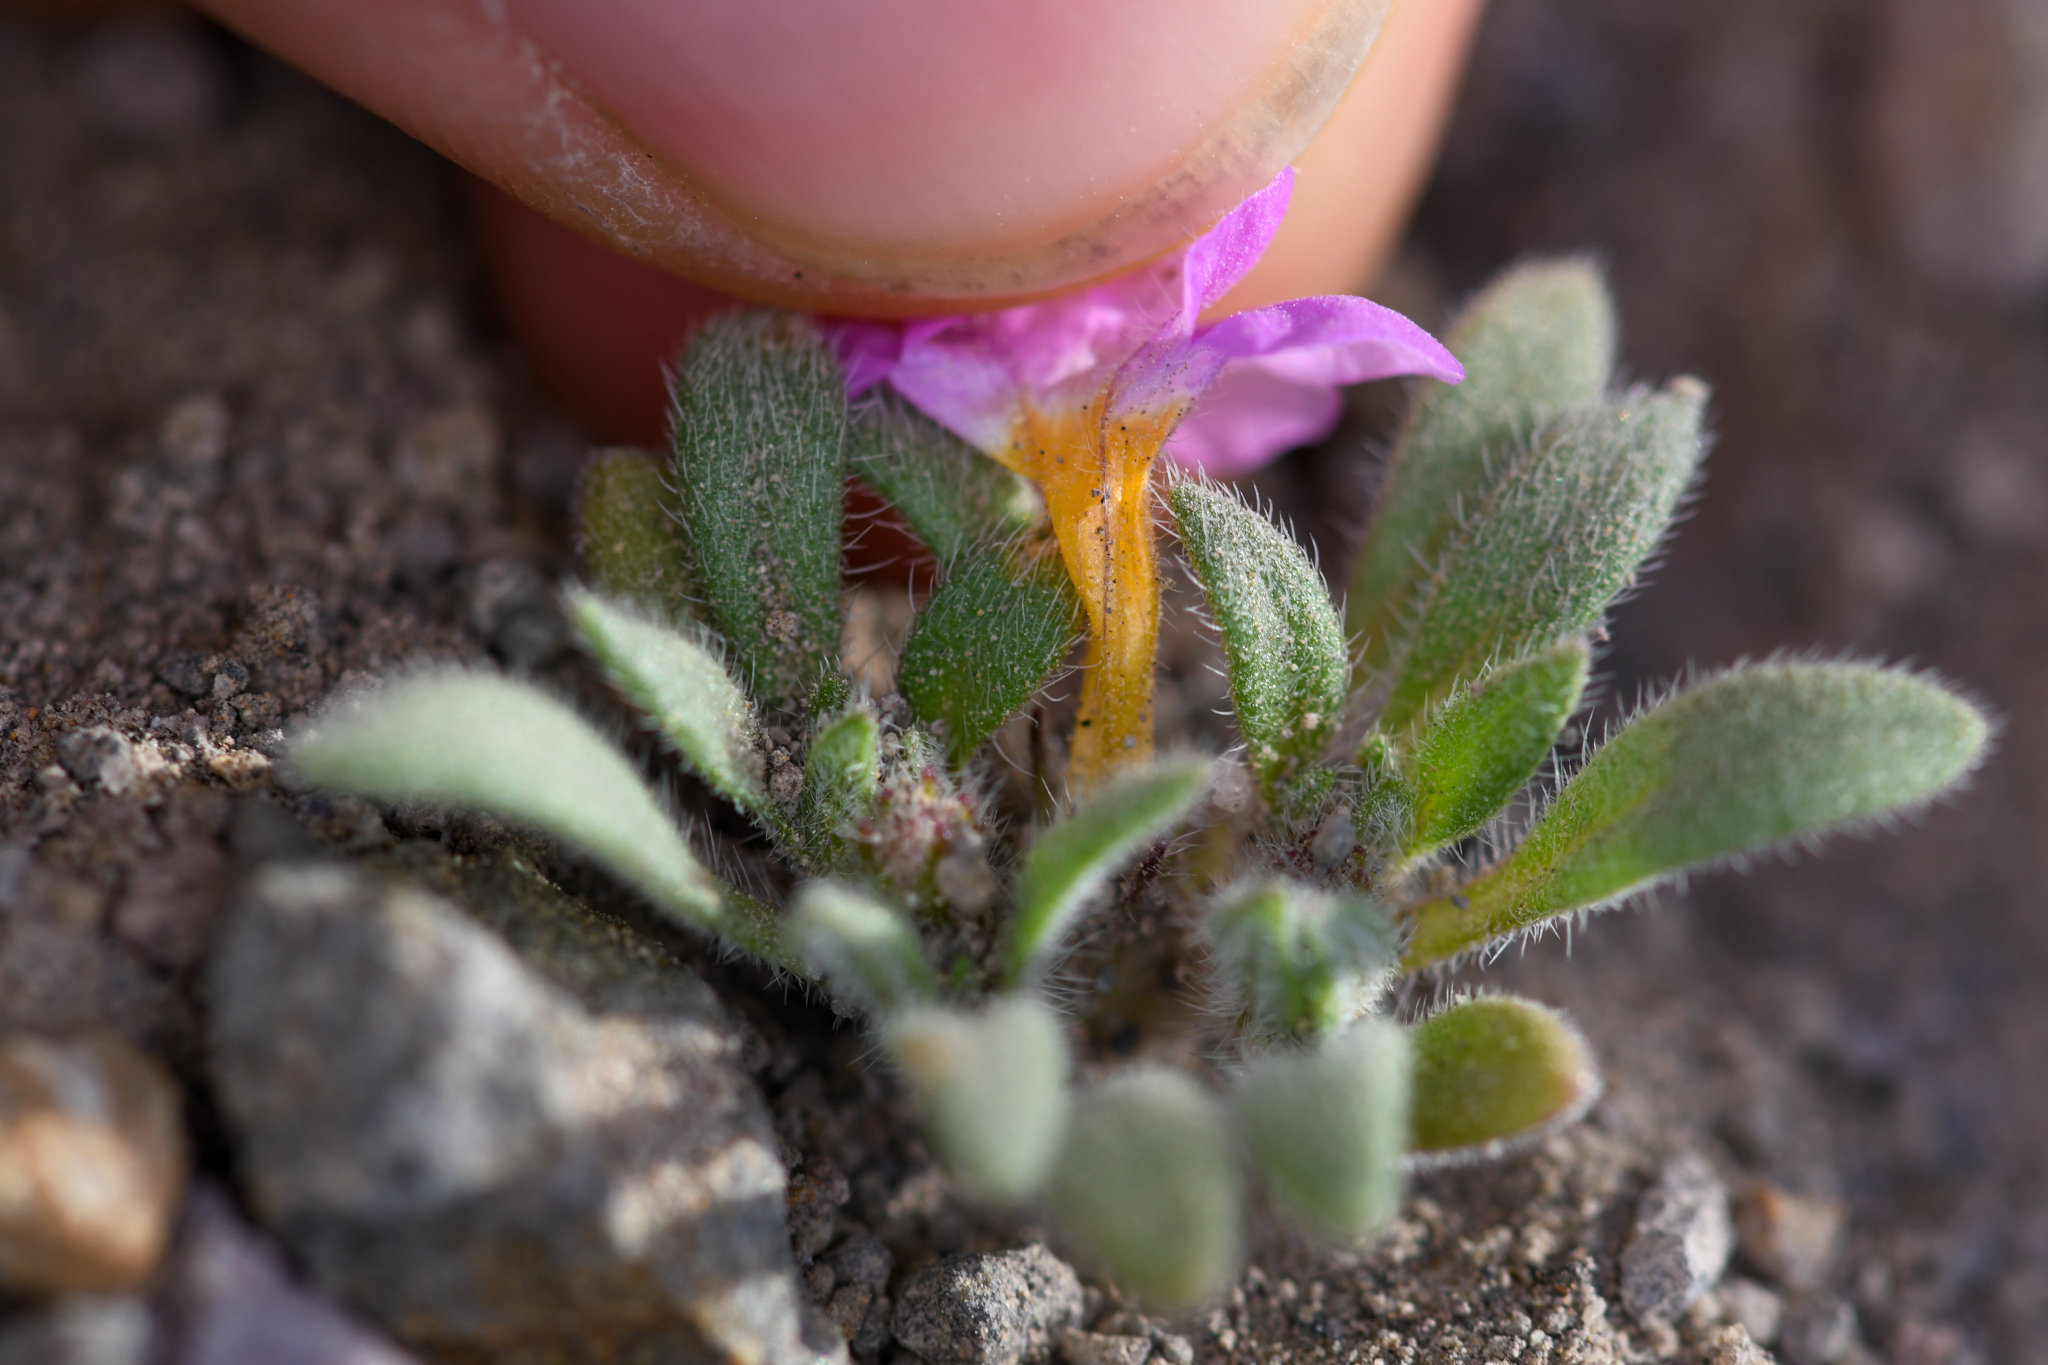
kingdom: Plantae
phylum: Tracheophyta
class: Magnoliopsida
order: Boraginales
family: Namaceae
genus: Nama
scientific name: Nama aretioides
